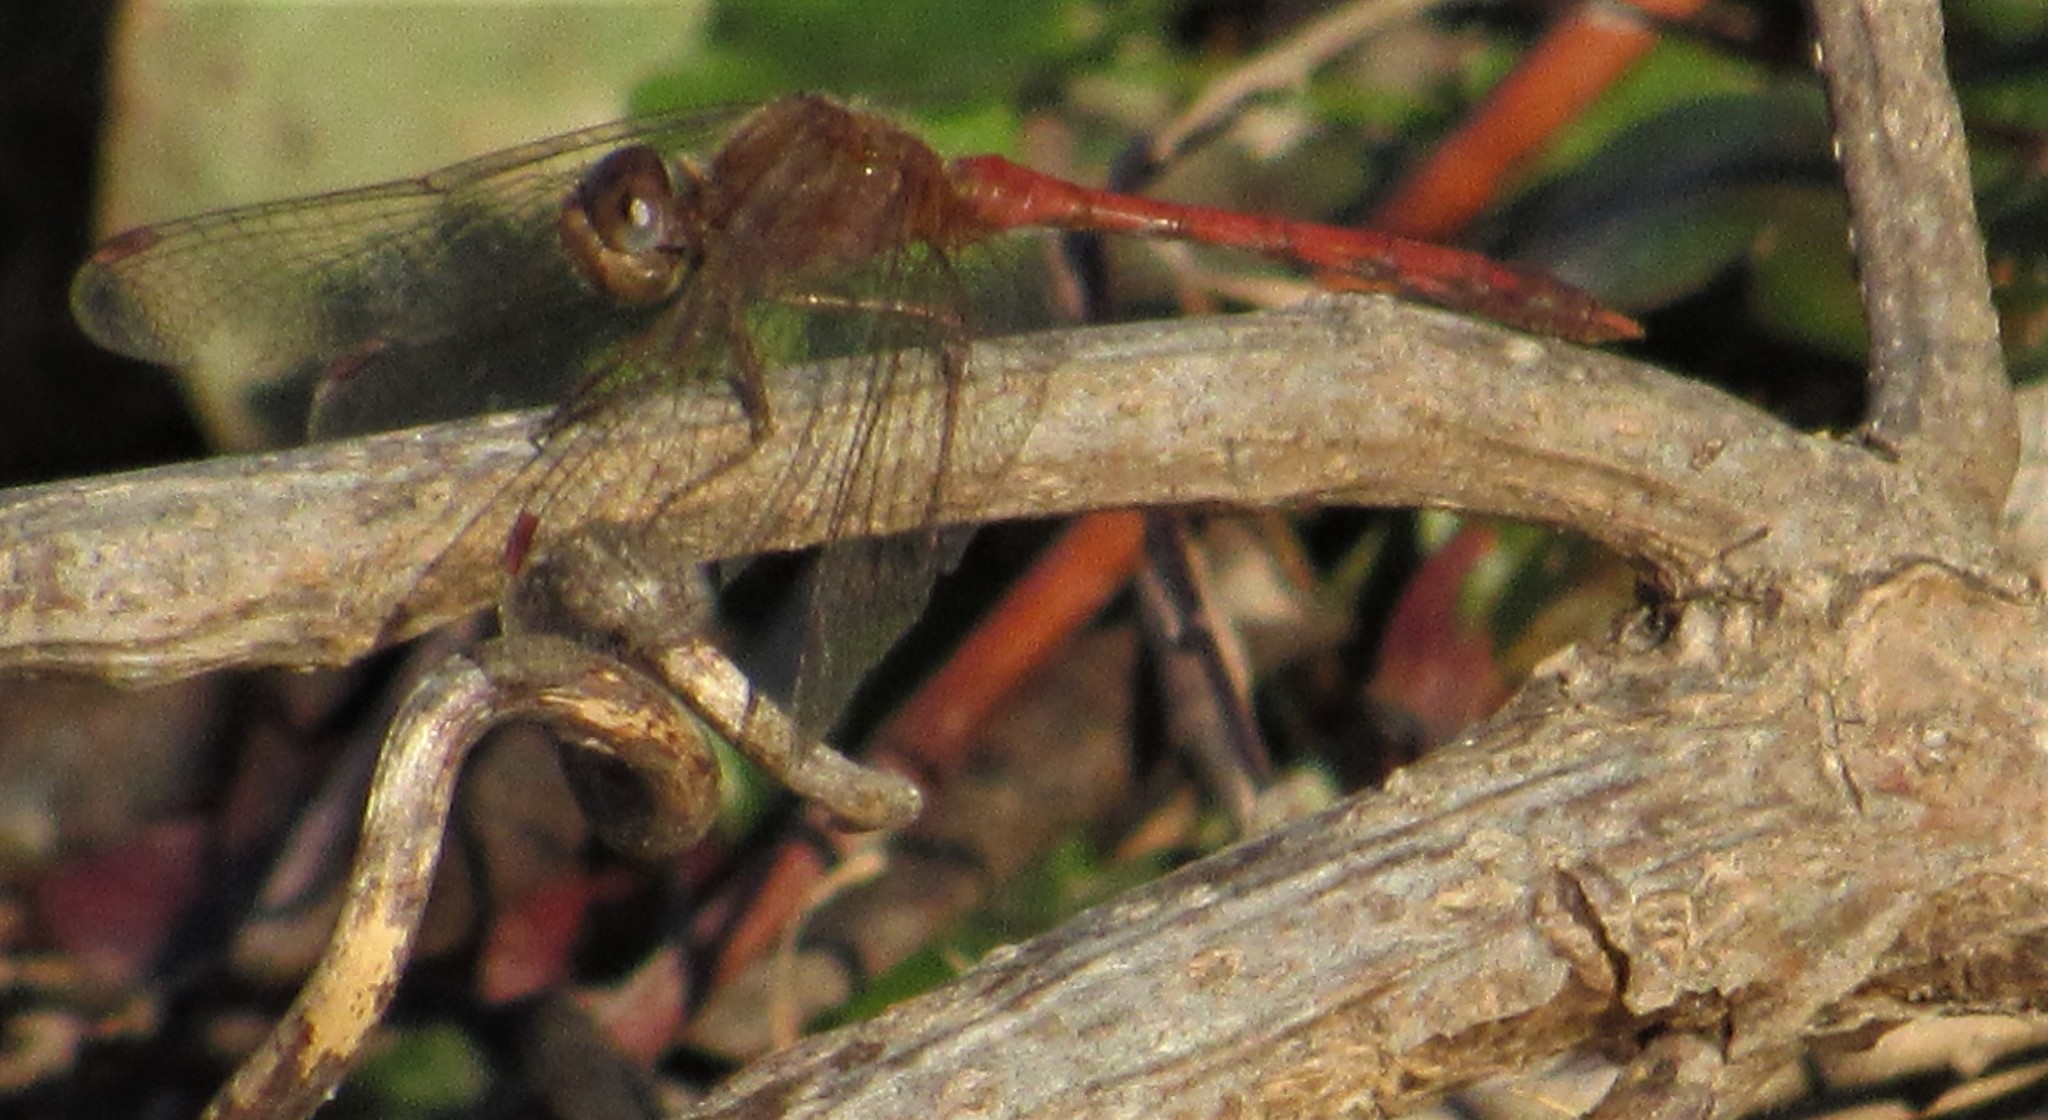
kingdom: Animalia
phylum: Arthropoda
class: Insecta
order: Odonata
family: Libellulidae
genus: Sympetrum
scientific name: Sympetrum vicinum
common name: Autumn meadowhawk
